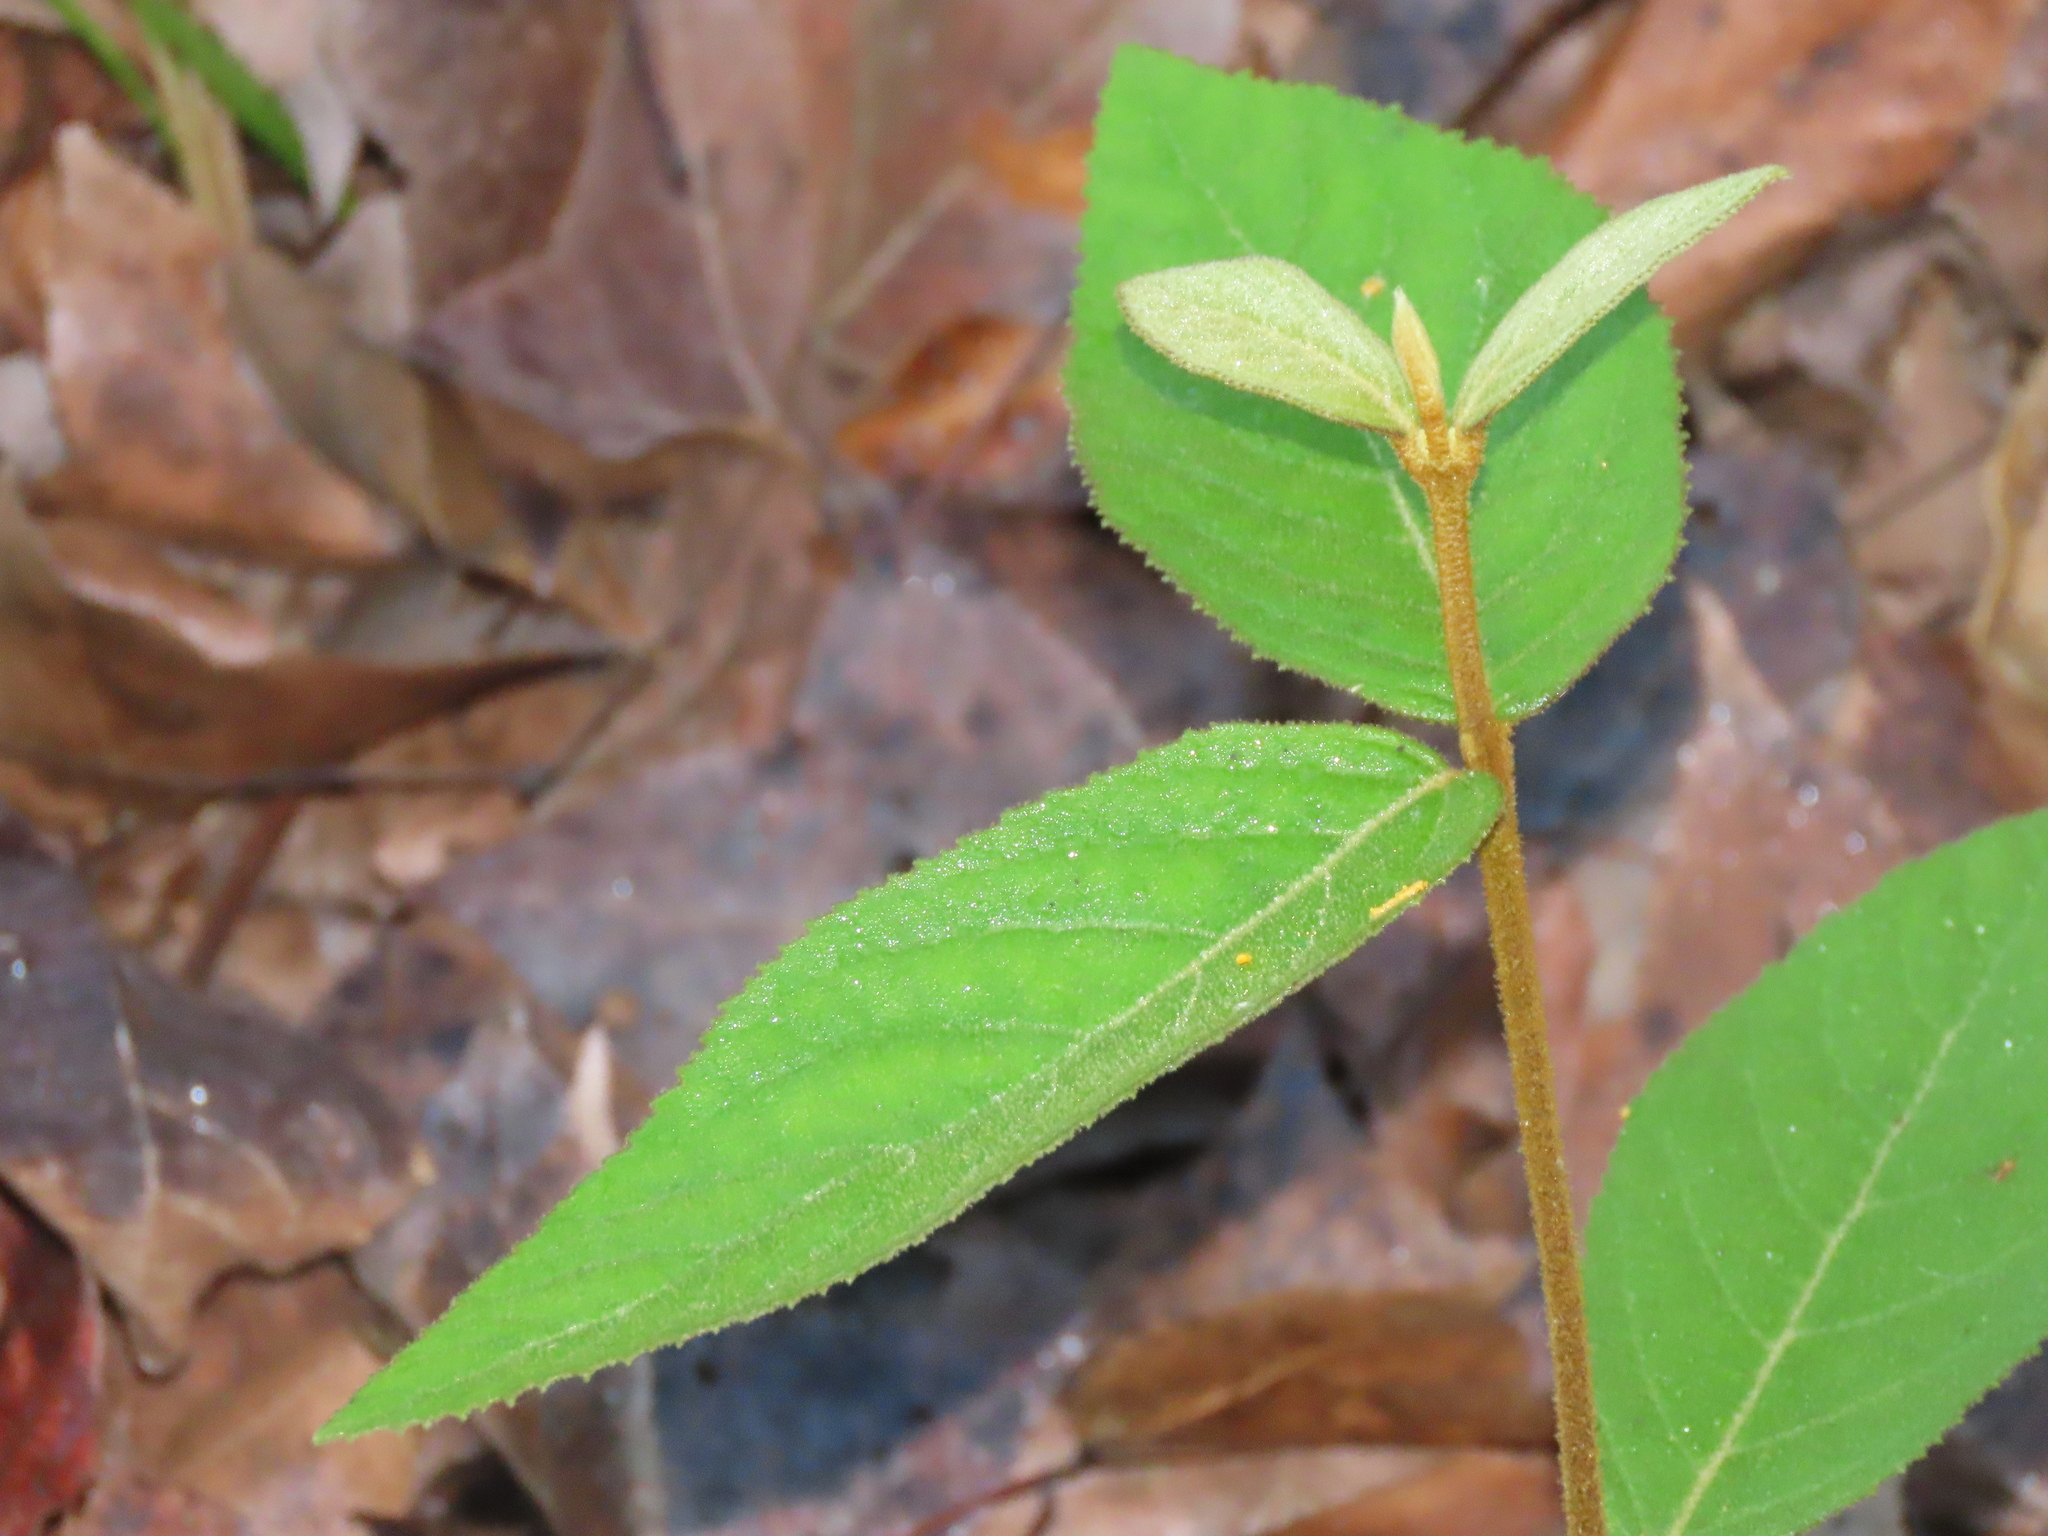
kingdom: Plantae
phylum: Tracheophyta
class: Magnoliopsida
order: Lamiales
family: Lamiaceae
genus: Callicarpa
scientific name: Callicarpa pedunculata
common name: Velvetleaf
